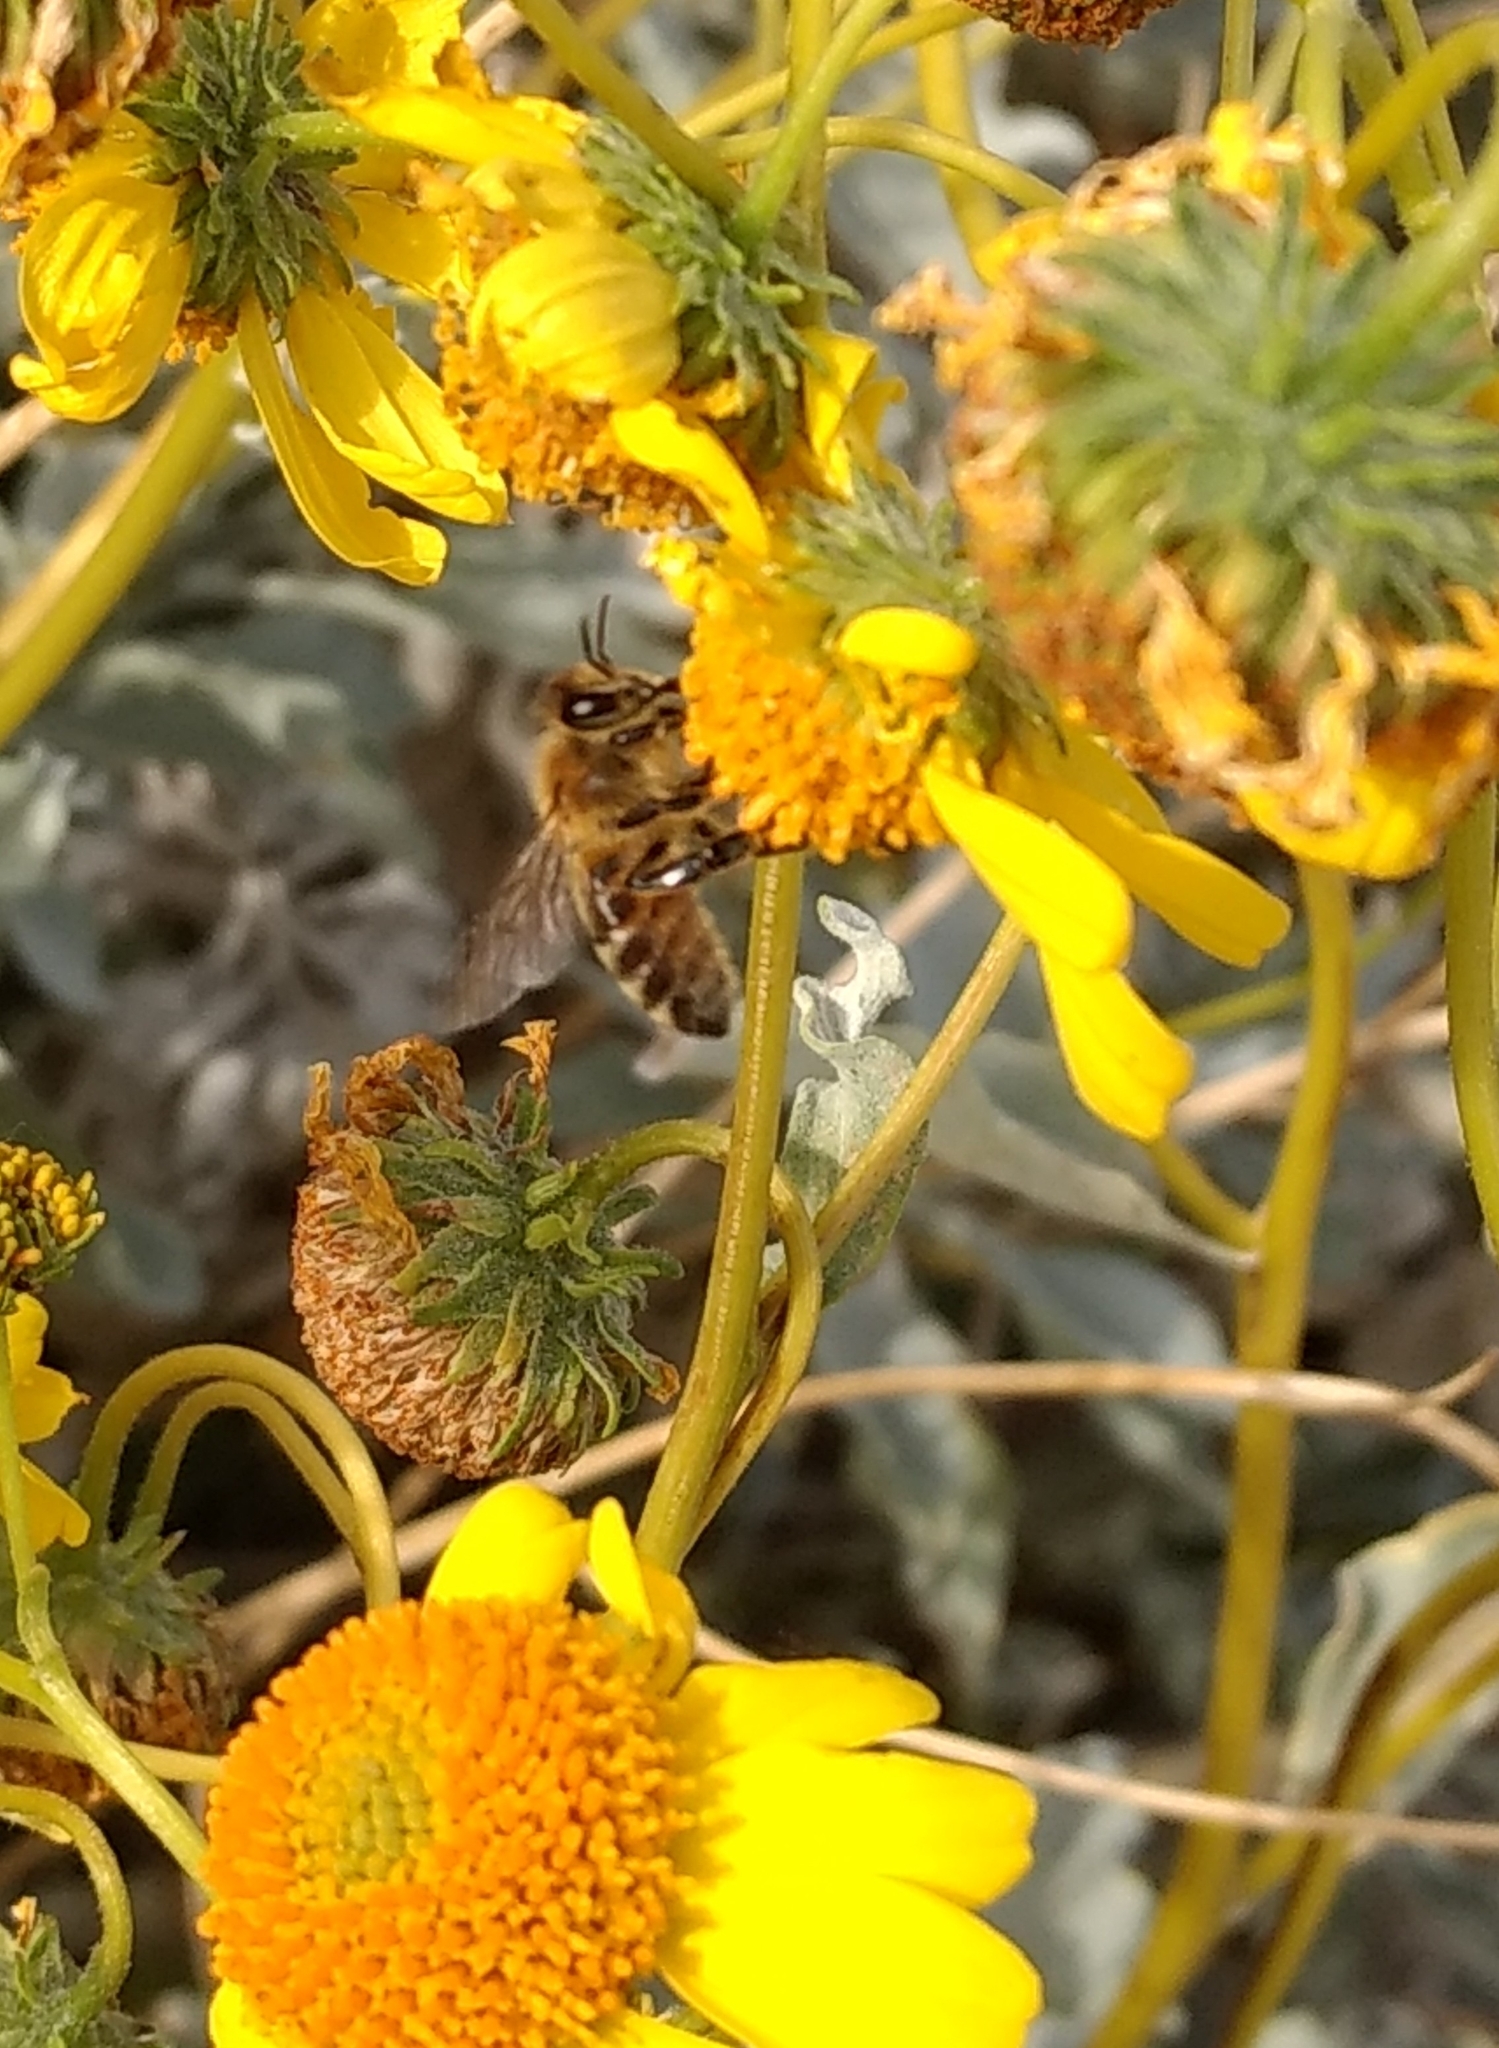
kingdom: Animalia
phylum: Arthropoda
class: Insecta
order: Hymenoptera
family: Apidae
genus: Apis
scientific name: Apis mellifera
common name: Honey bee
